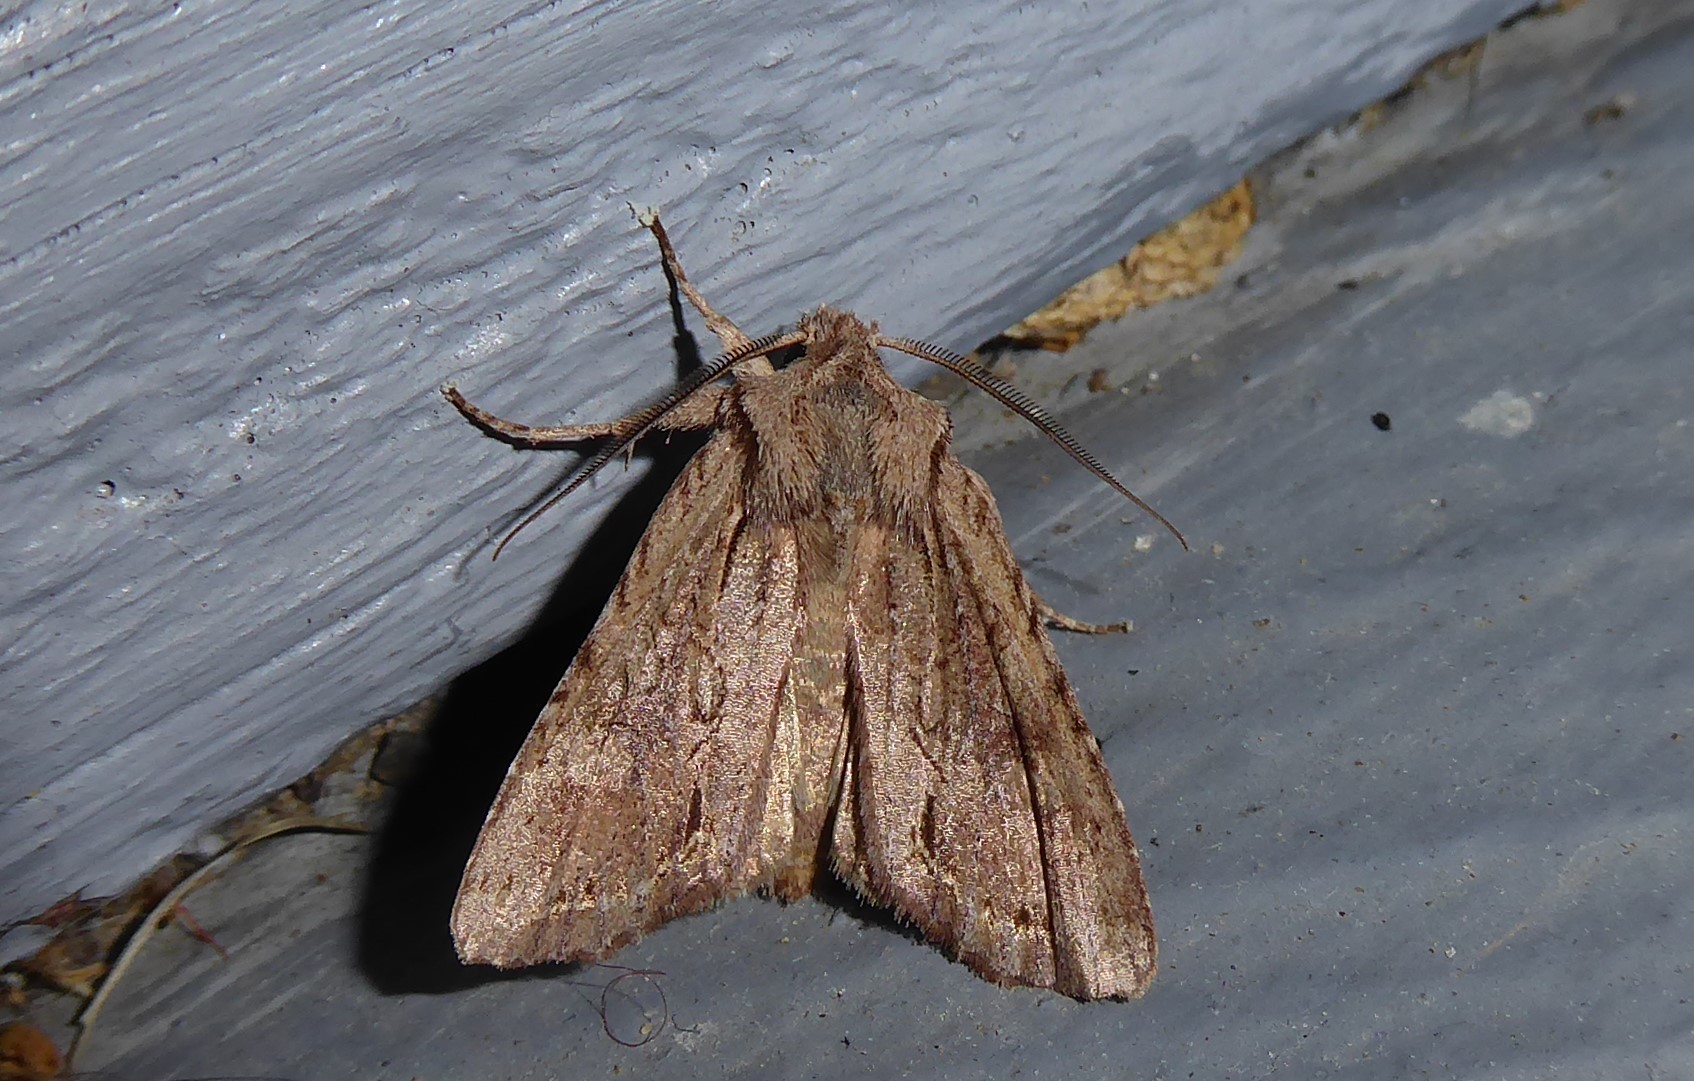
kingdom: Animalia
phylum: Arthropoda
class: Insecta
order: Lepidoptera
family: Noctuidae
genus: Ichneutica
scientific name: Ichneutica
